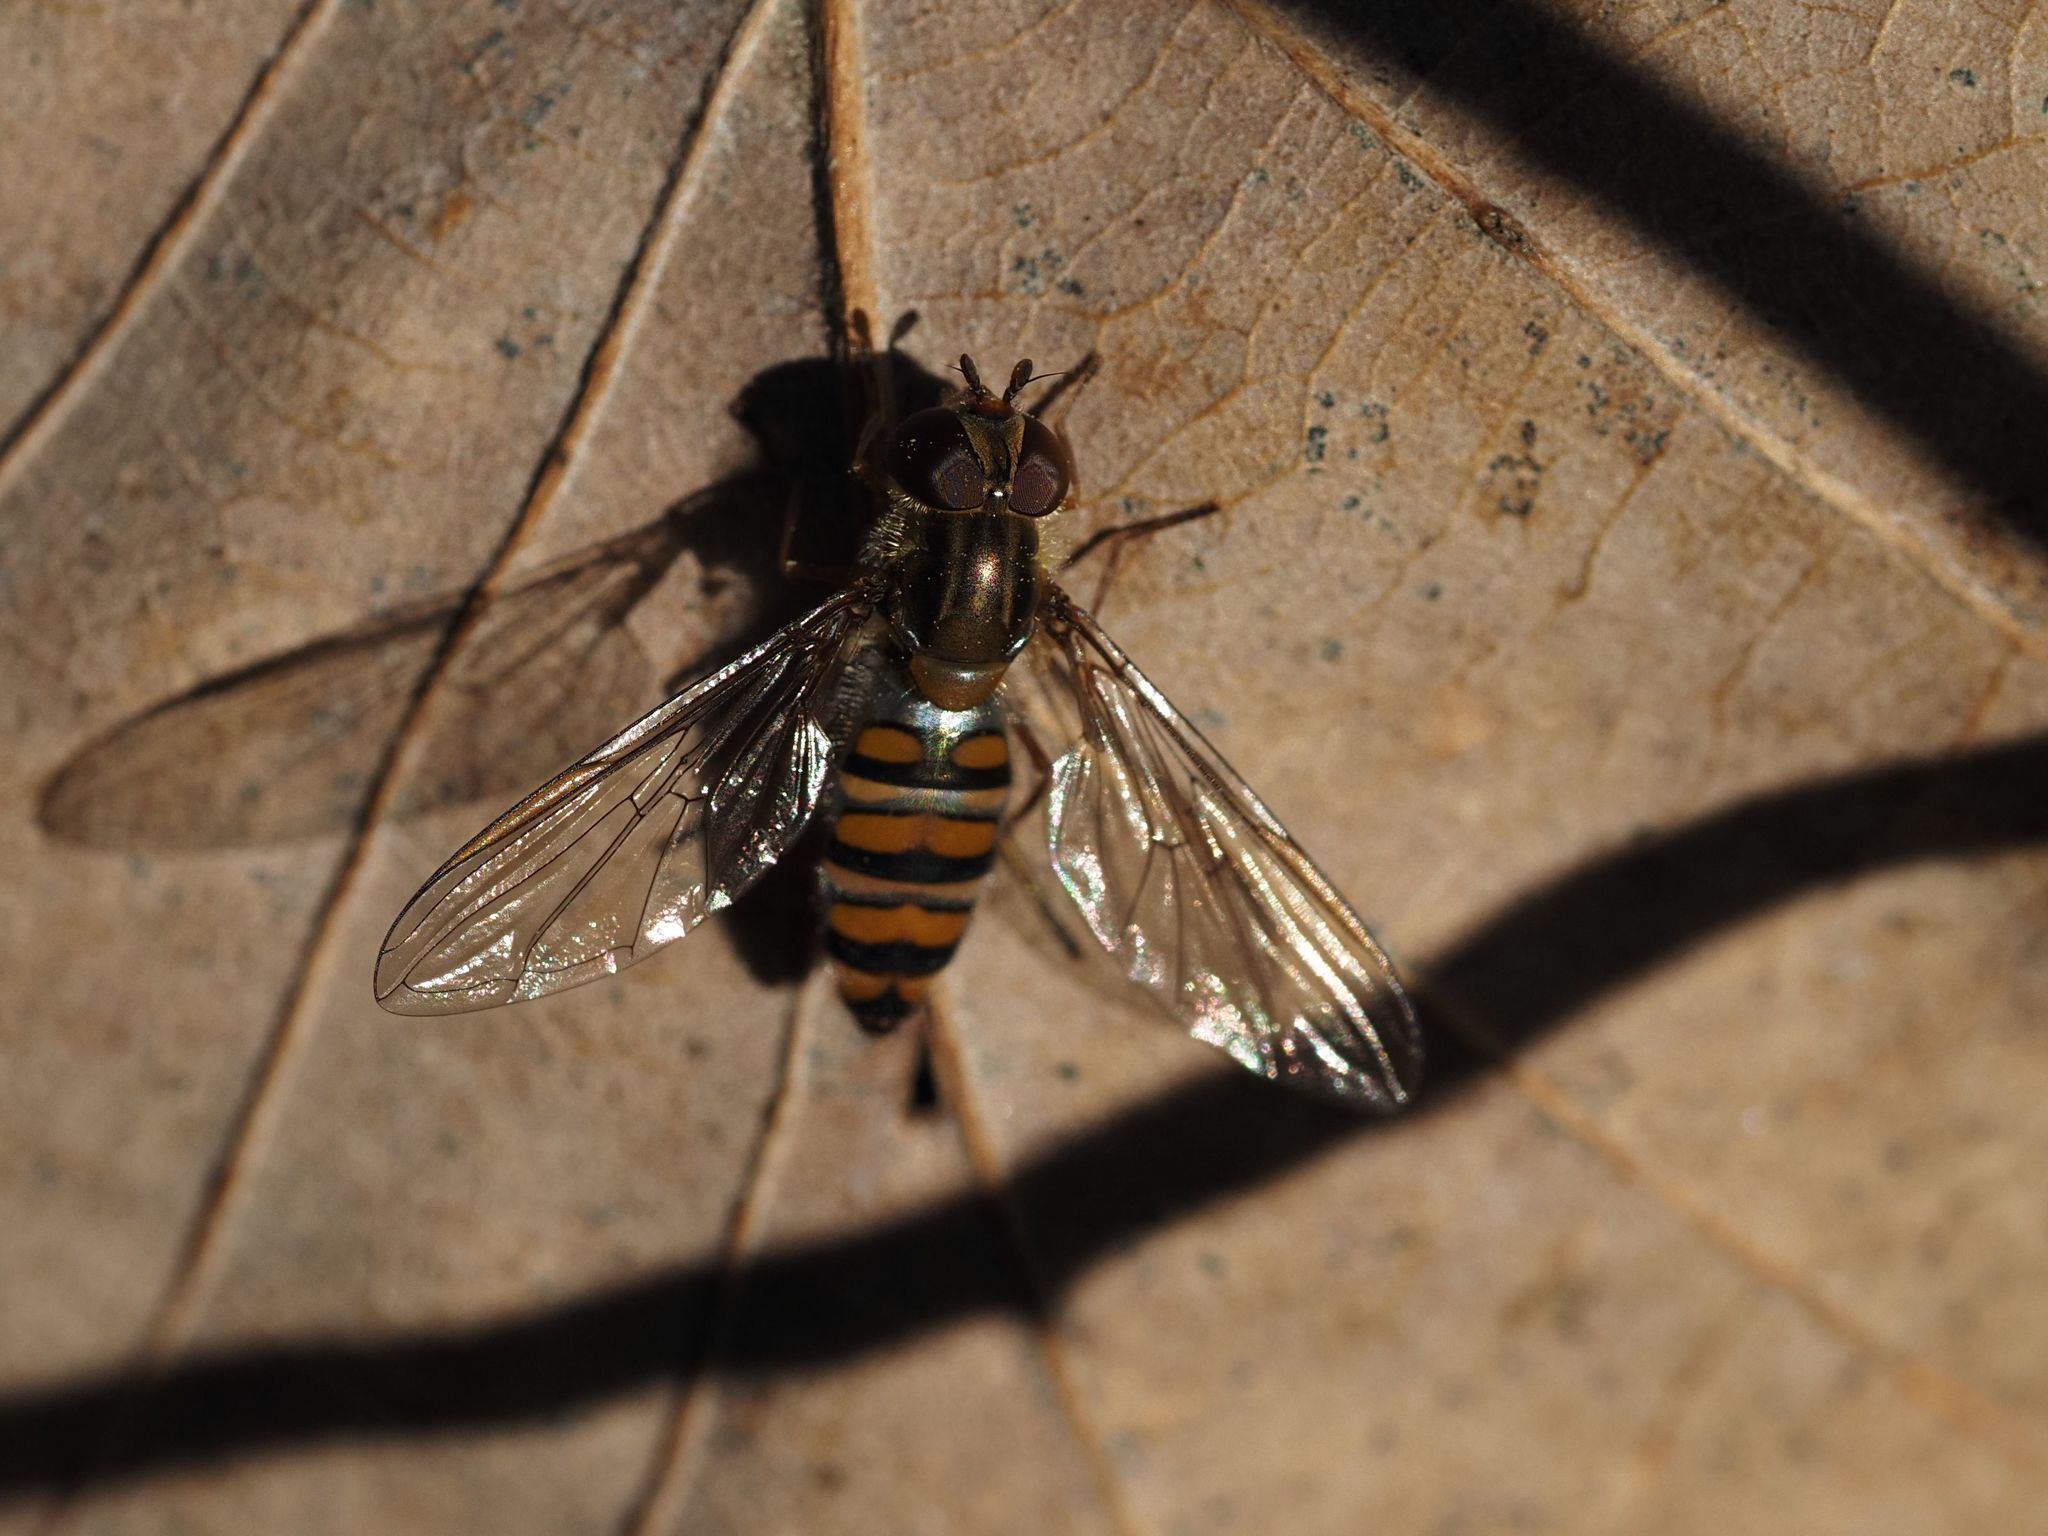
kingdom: Animalia
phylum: Arthropoda
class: Insecta
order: Diptera
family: Syrphidae
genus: Episyrphus
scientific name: Episyrphus balteatus
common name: Marmalade hoverfly
